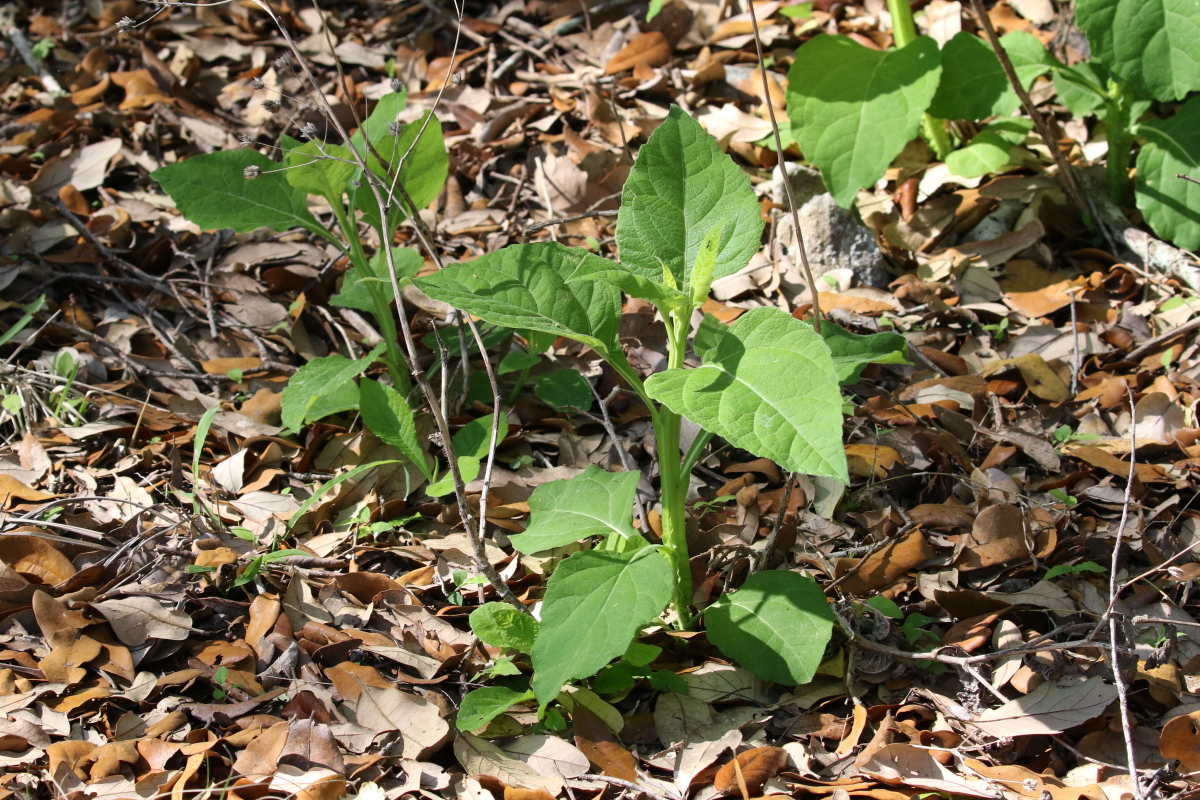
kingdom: Plantae
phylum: Tracheophyta
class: Magnoliopsida
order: Asterales
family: Asteraceae
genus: Verbesina
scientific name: Verbesina virginica
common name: Frostweed
